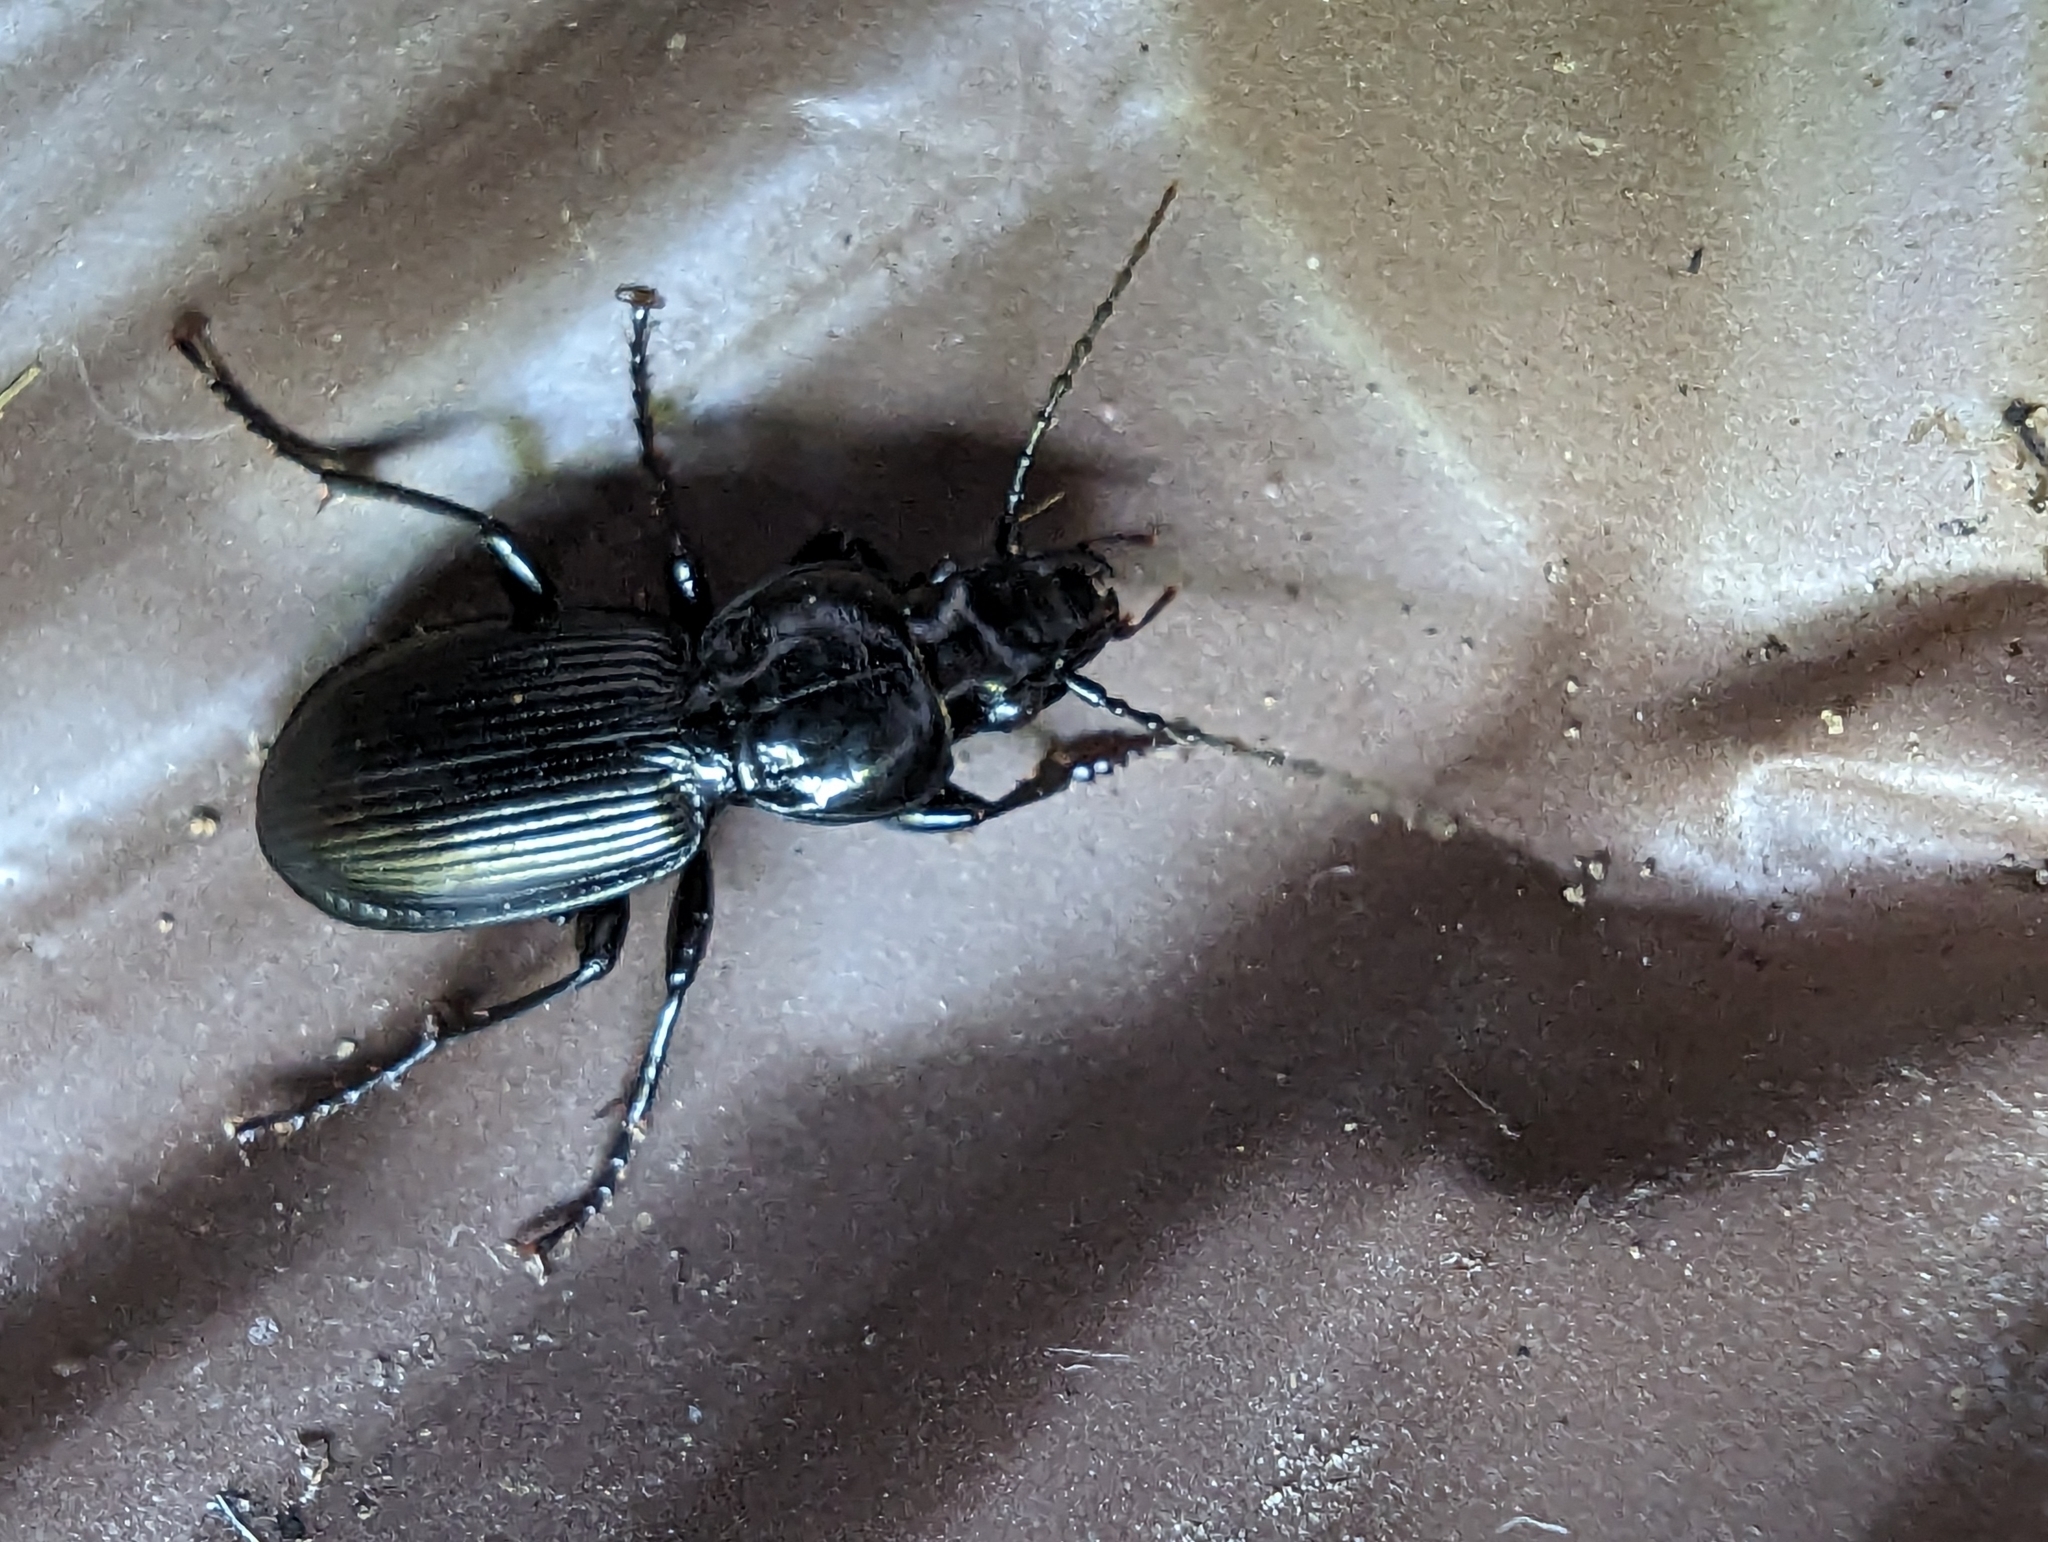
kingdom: Animalia
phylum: Arthropoda
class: Insecta
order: Coleoptera
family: Carabidae
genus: Pterostichus
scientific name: Pterostichus madidus
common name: Black clock
